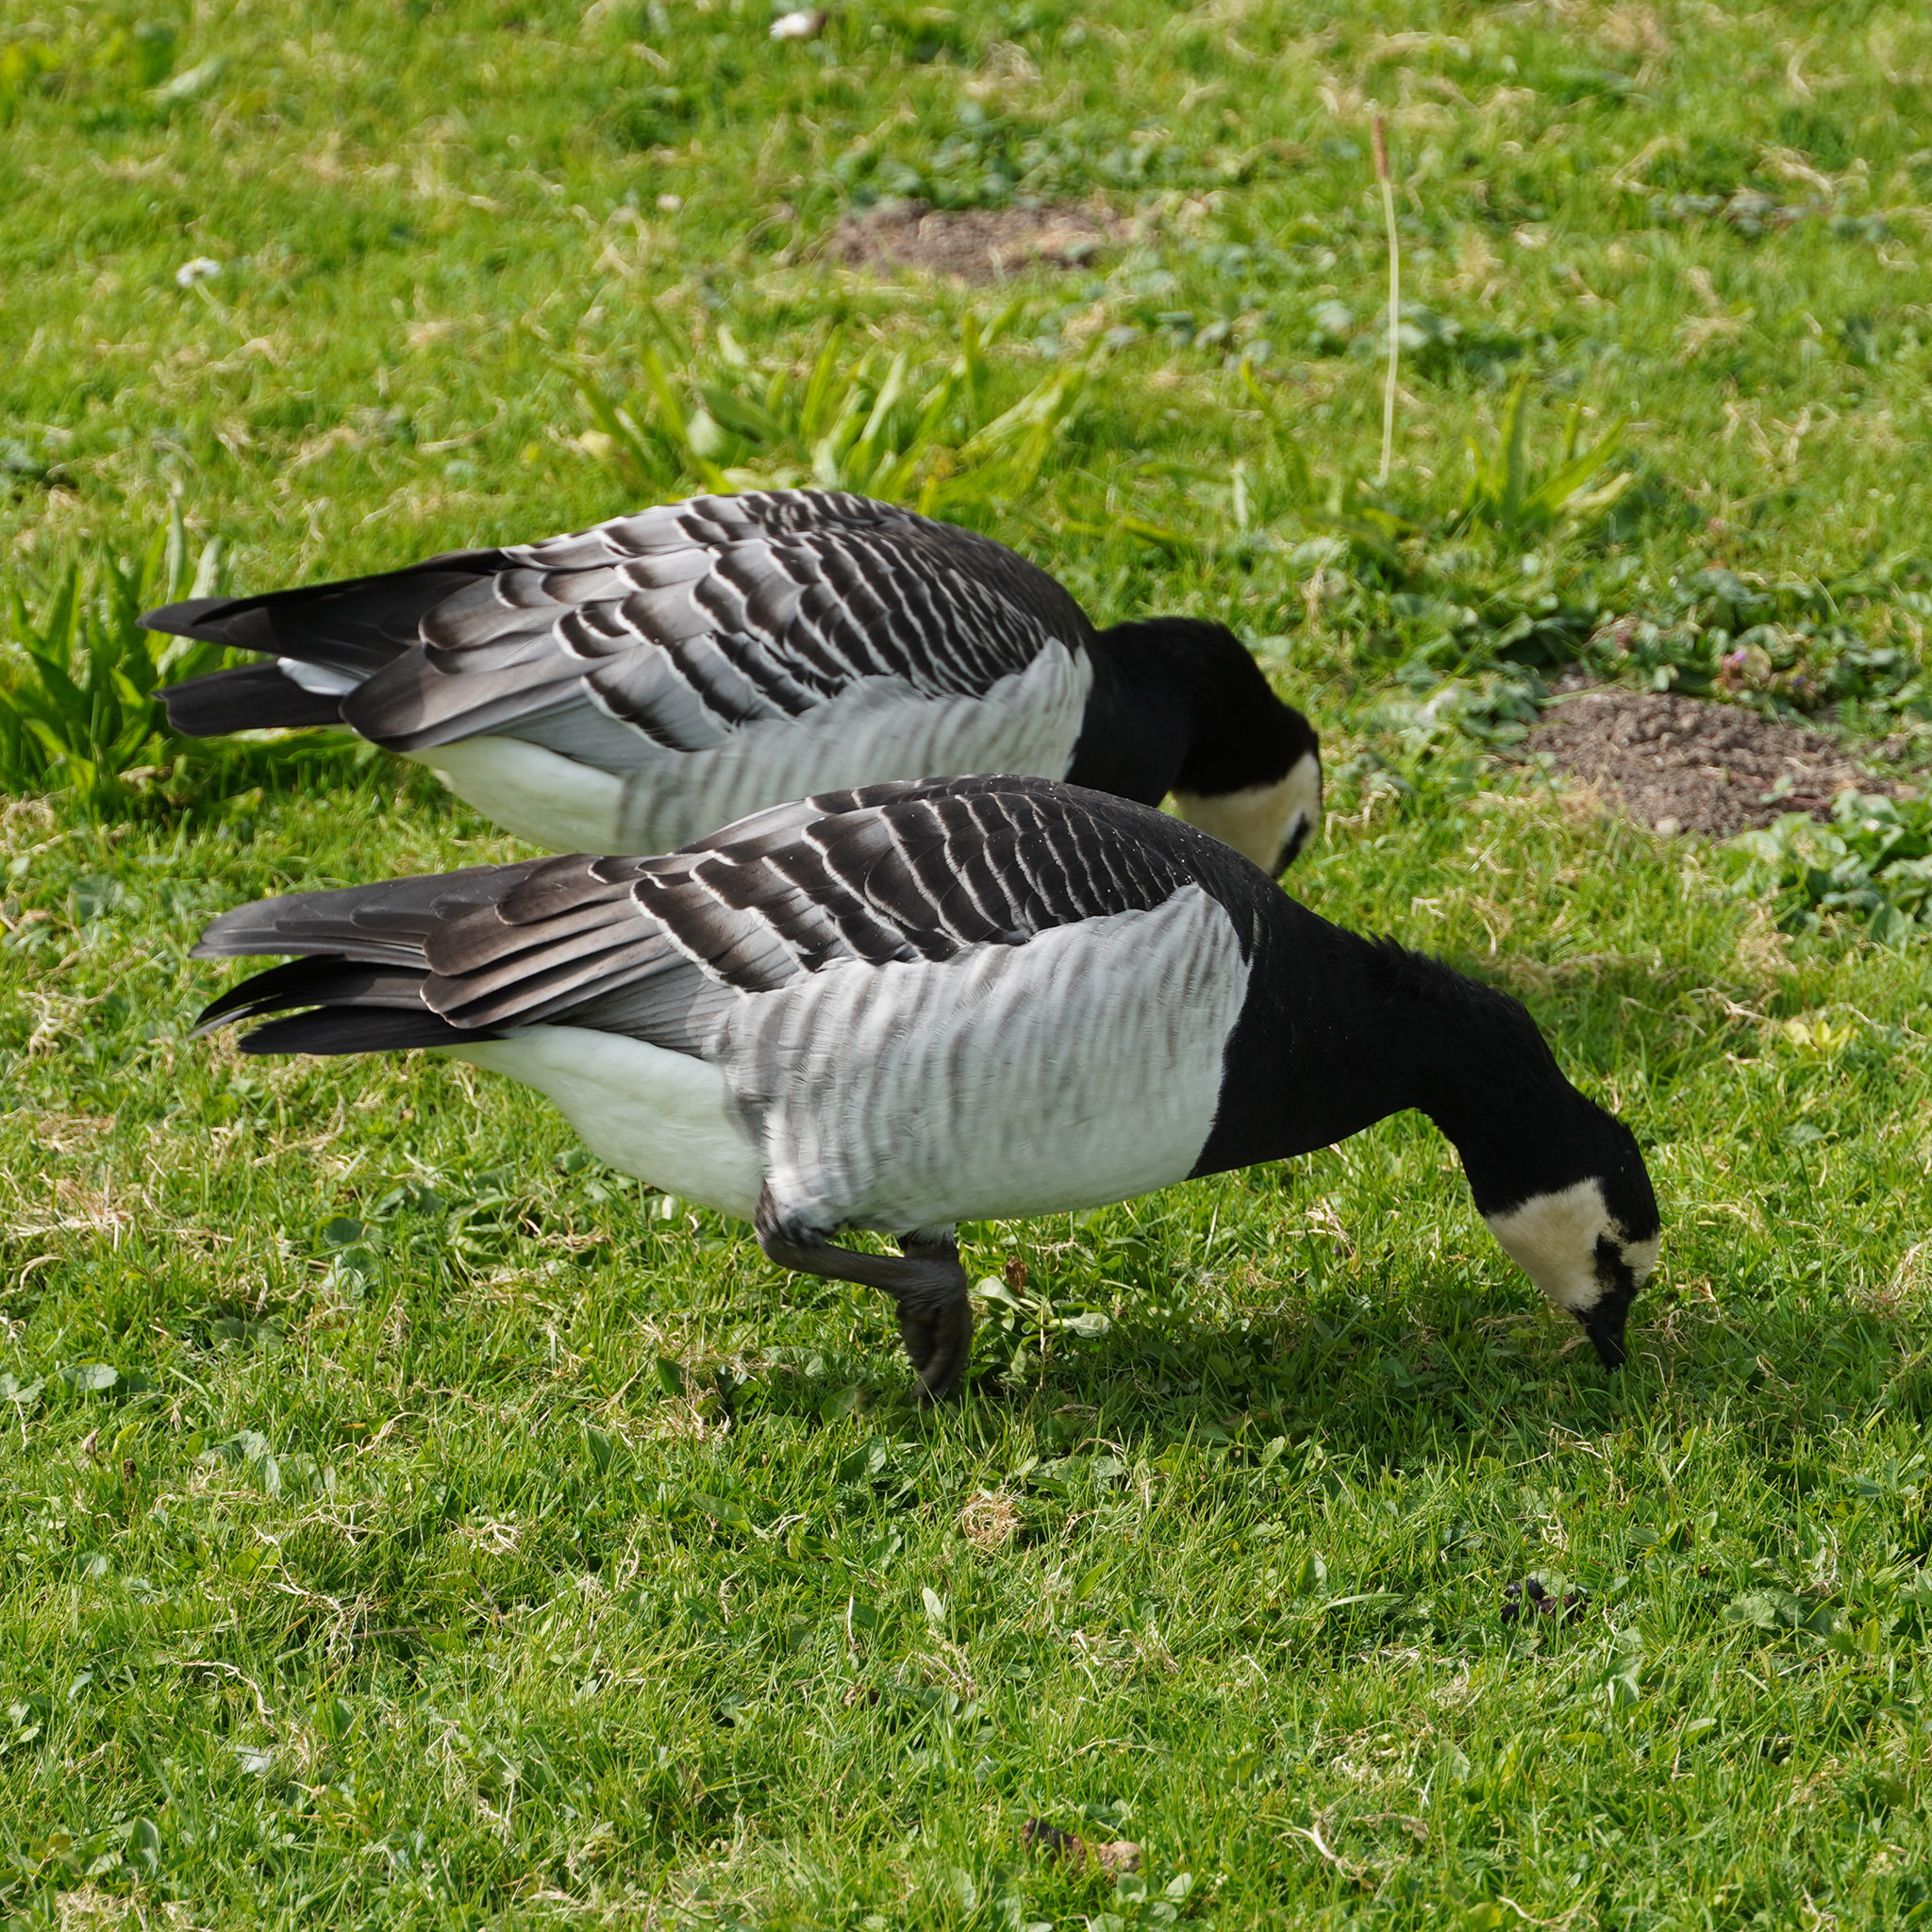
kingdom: Animalia
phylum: Chordata
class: Aves
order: Anseriformes
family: Anatidae
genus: Branta
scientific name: Branta leucopsis
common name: Barnacle goose
